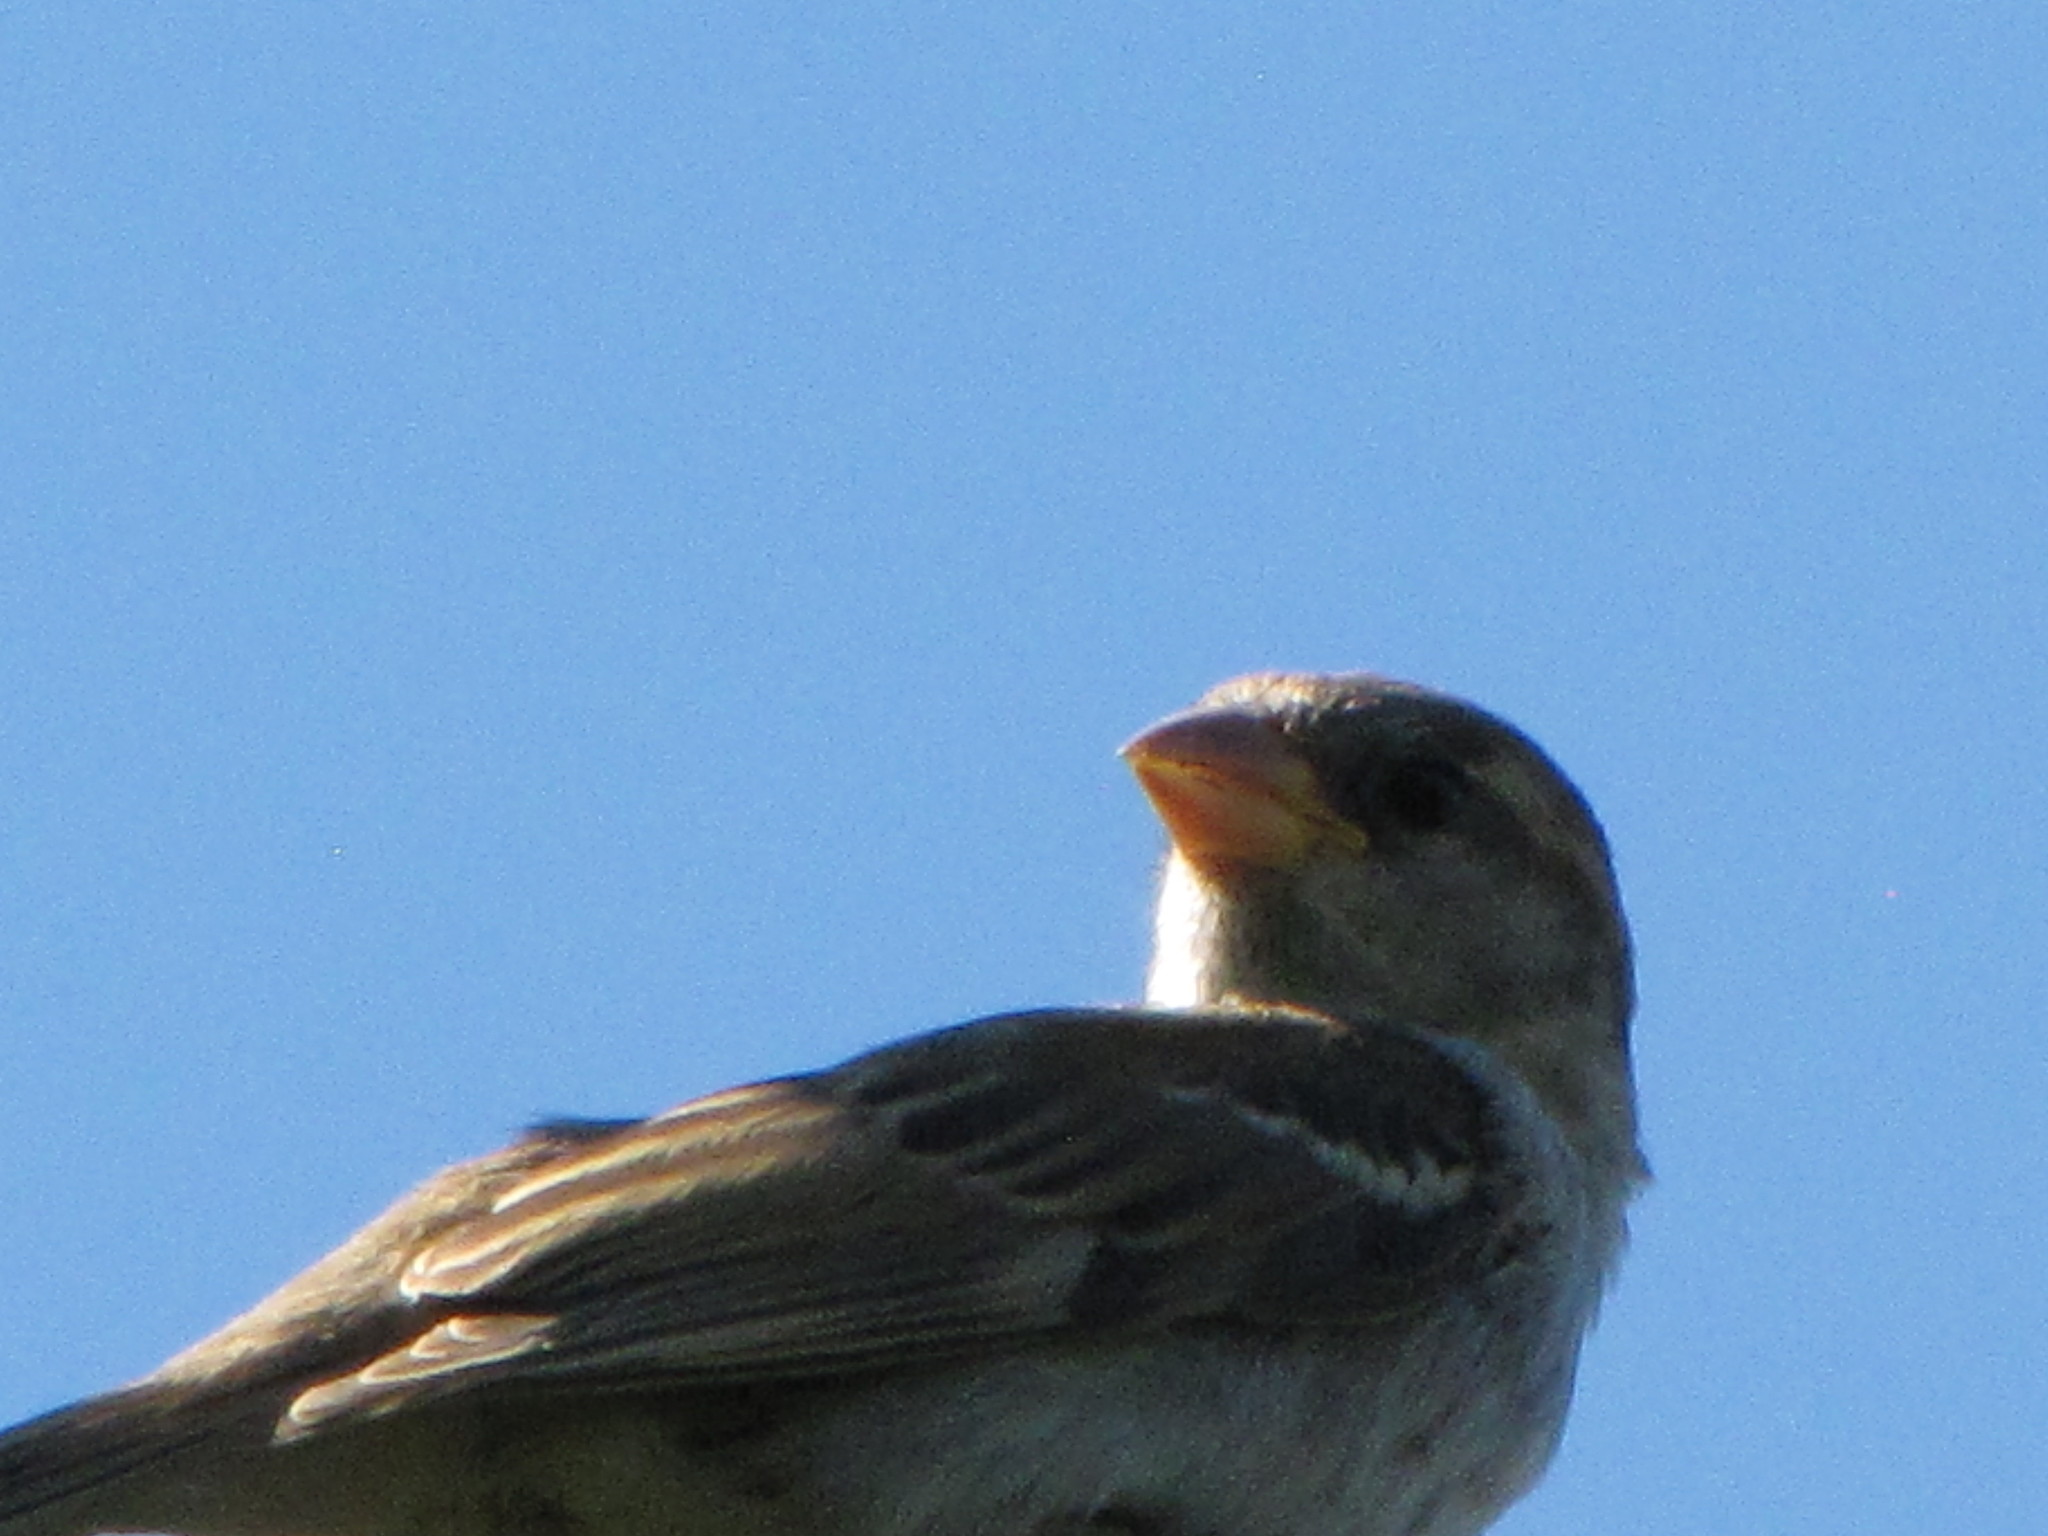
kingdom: Animalia
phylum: Chordata
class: Aves
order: Passeriformes
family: Passeridae
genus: Passer
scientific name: Passer domesticus
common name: House sparrow
